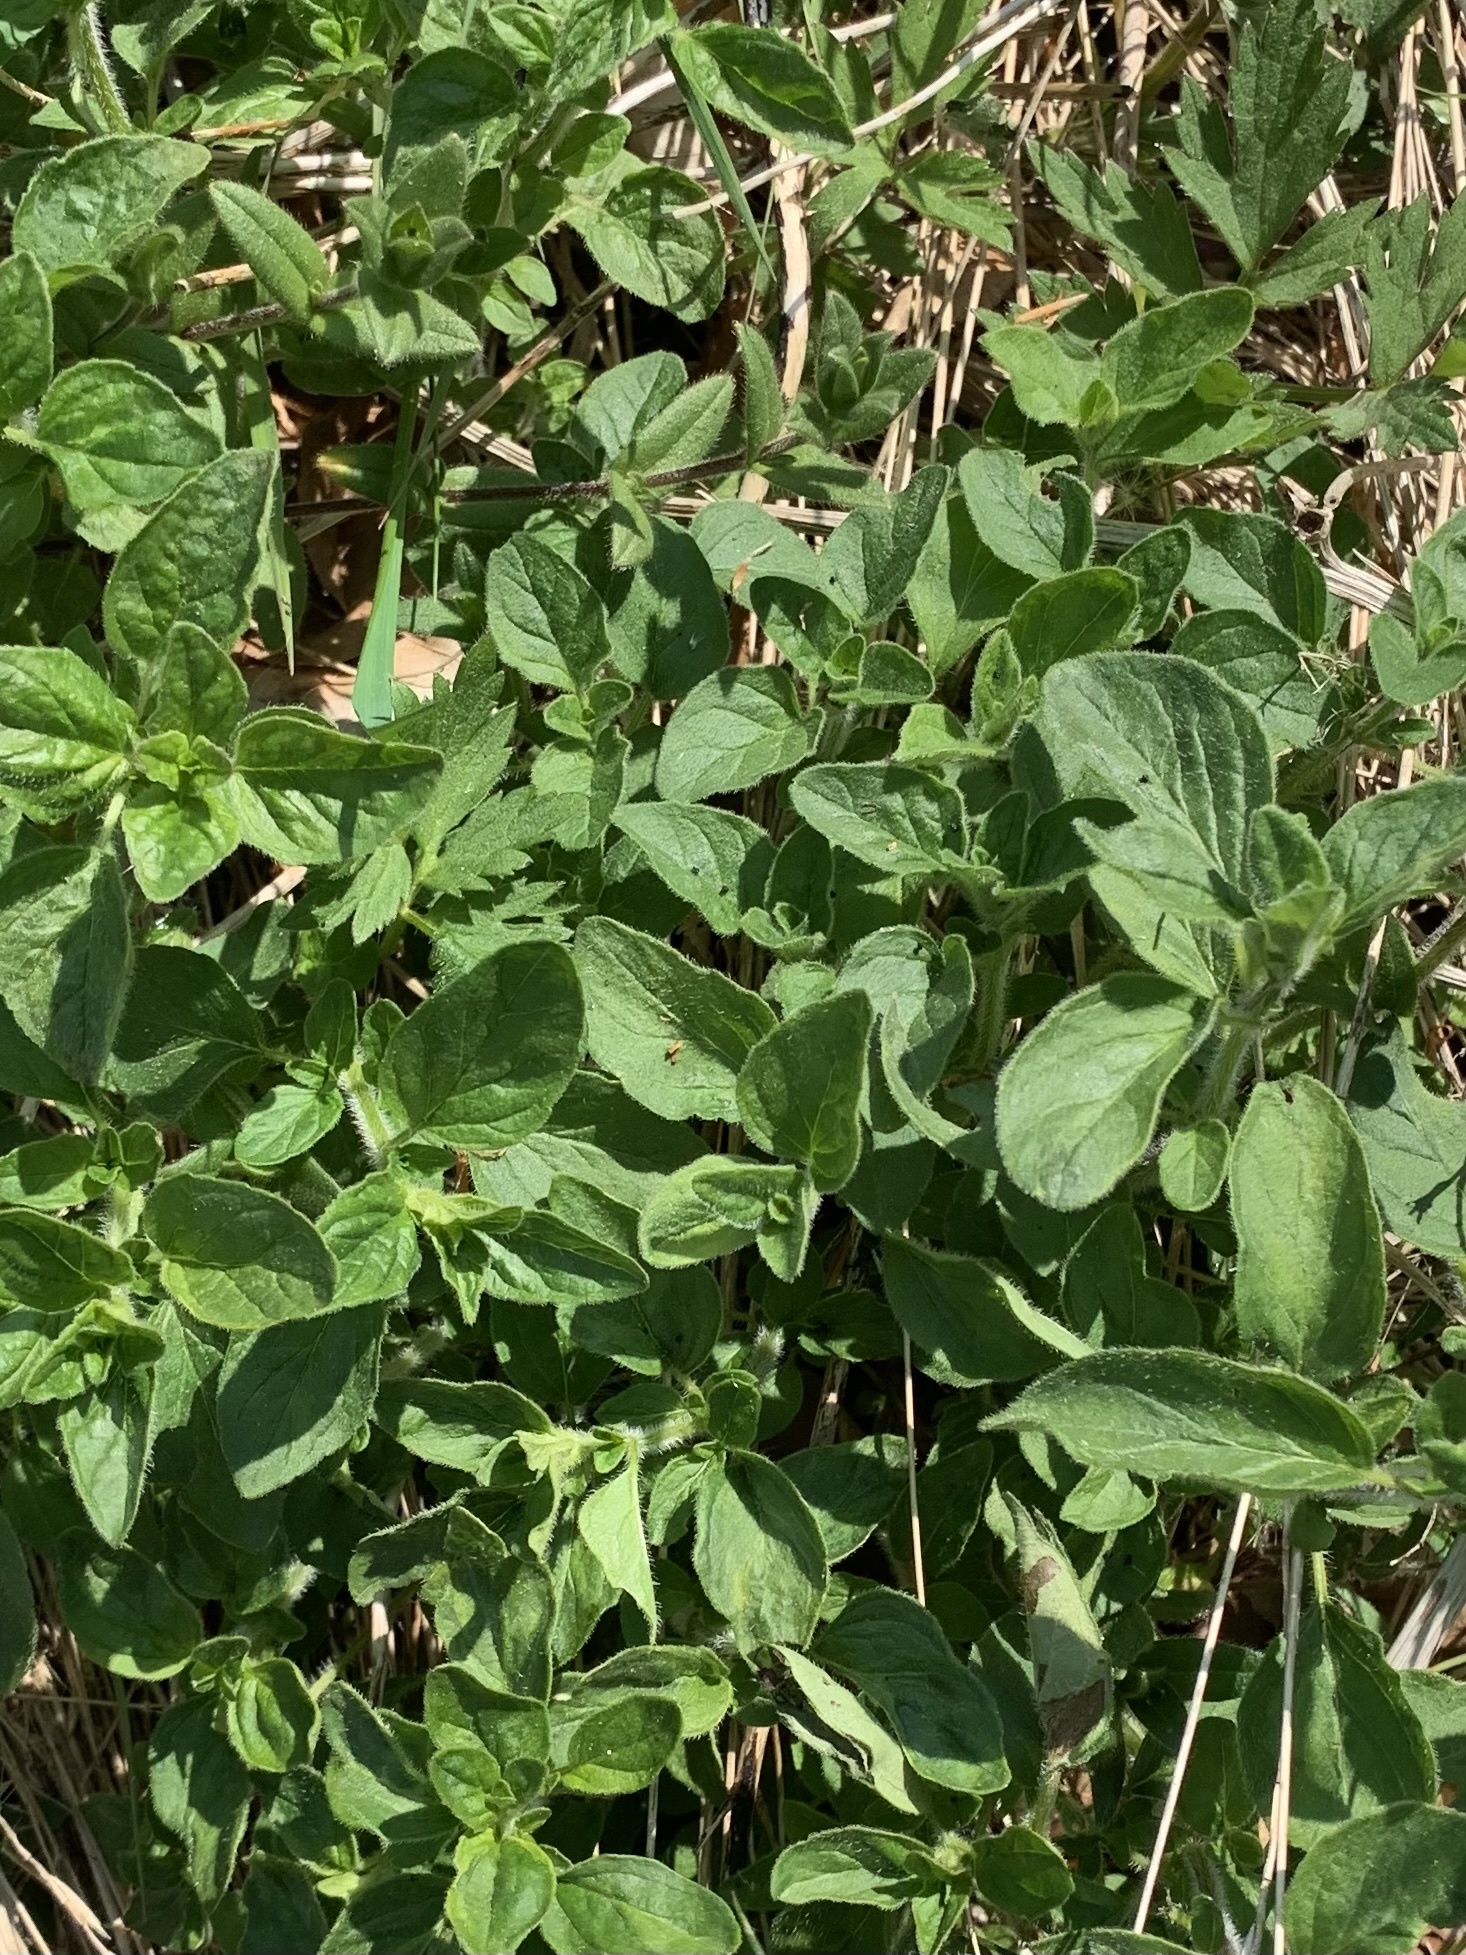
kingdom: Plantae
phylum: Tracheophyta
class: Magnoliopsida
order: Lamiales
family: Lamiaceae
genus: Origanum
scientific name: Origanum vulgare
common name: Wild marjoram
